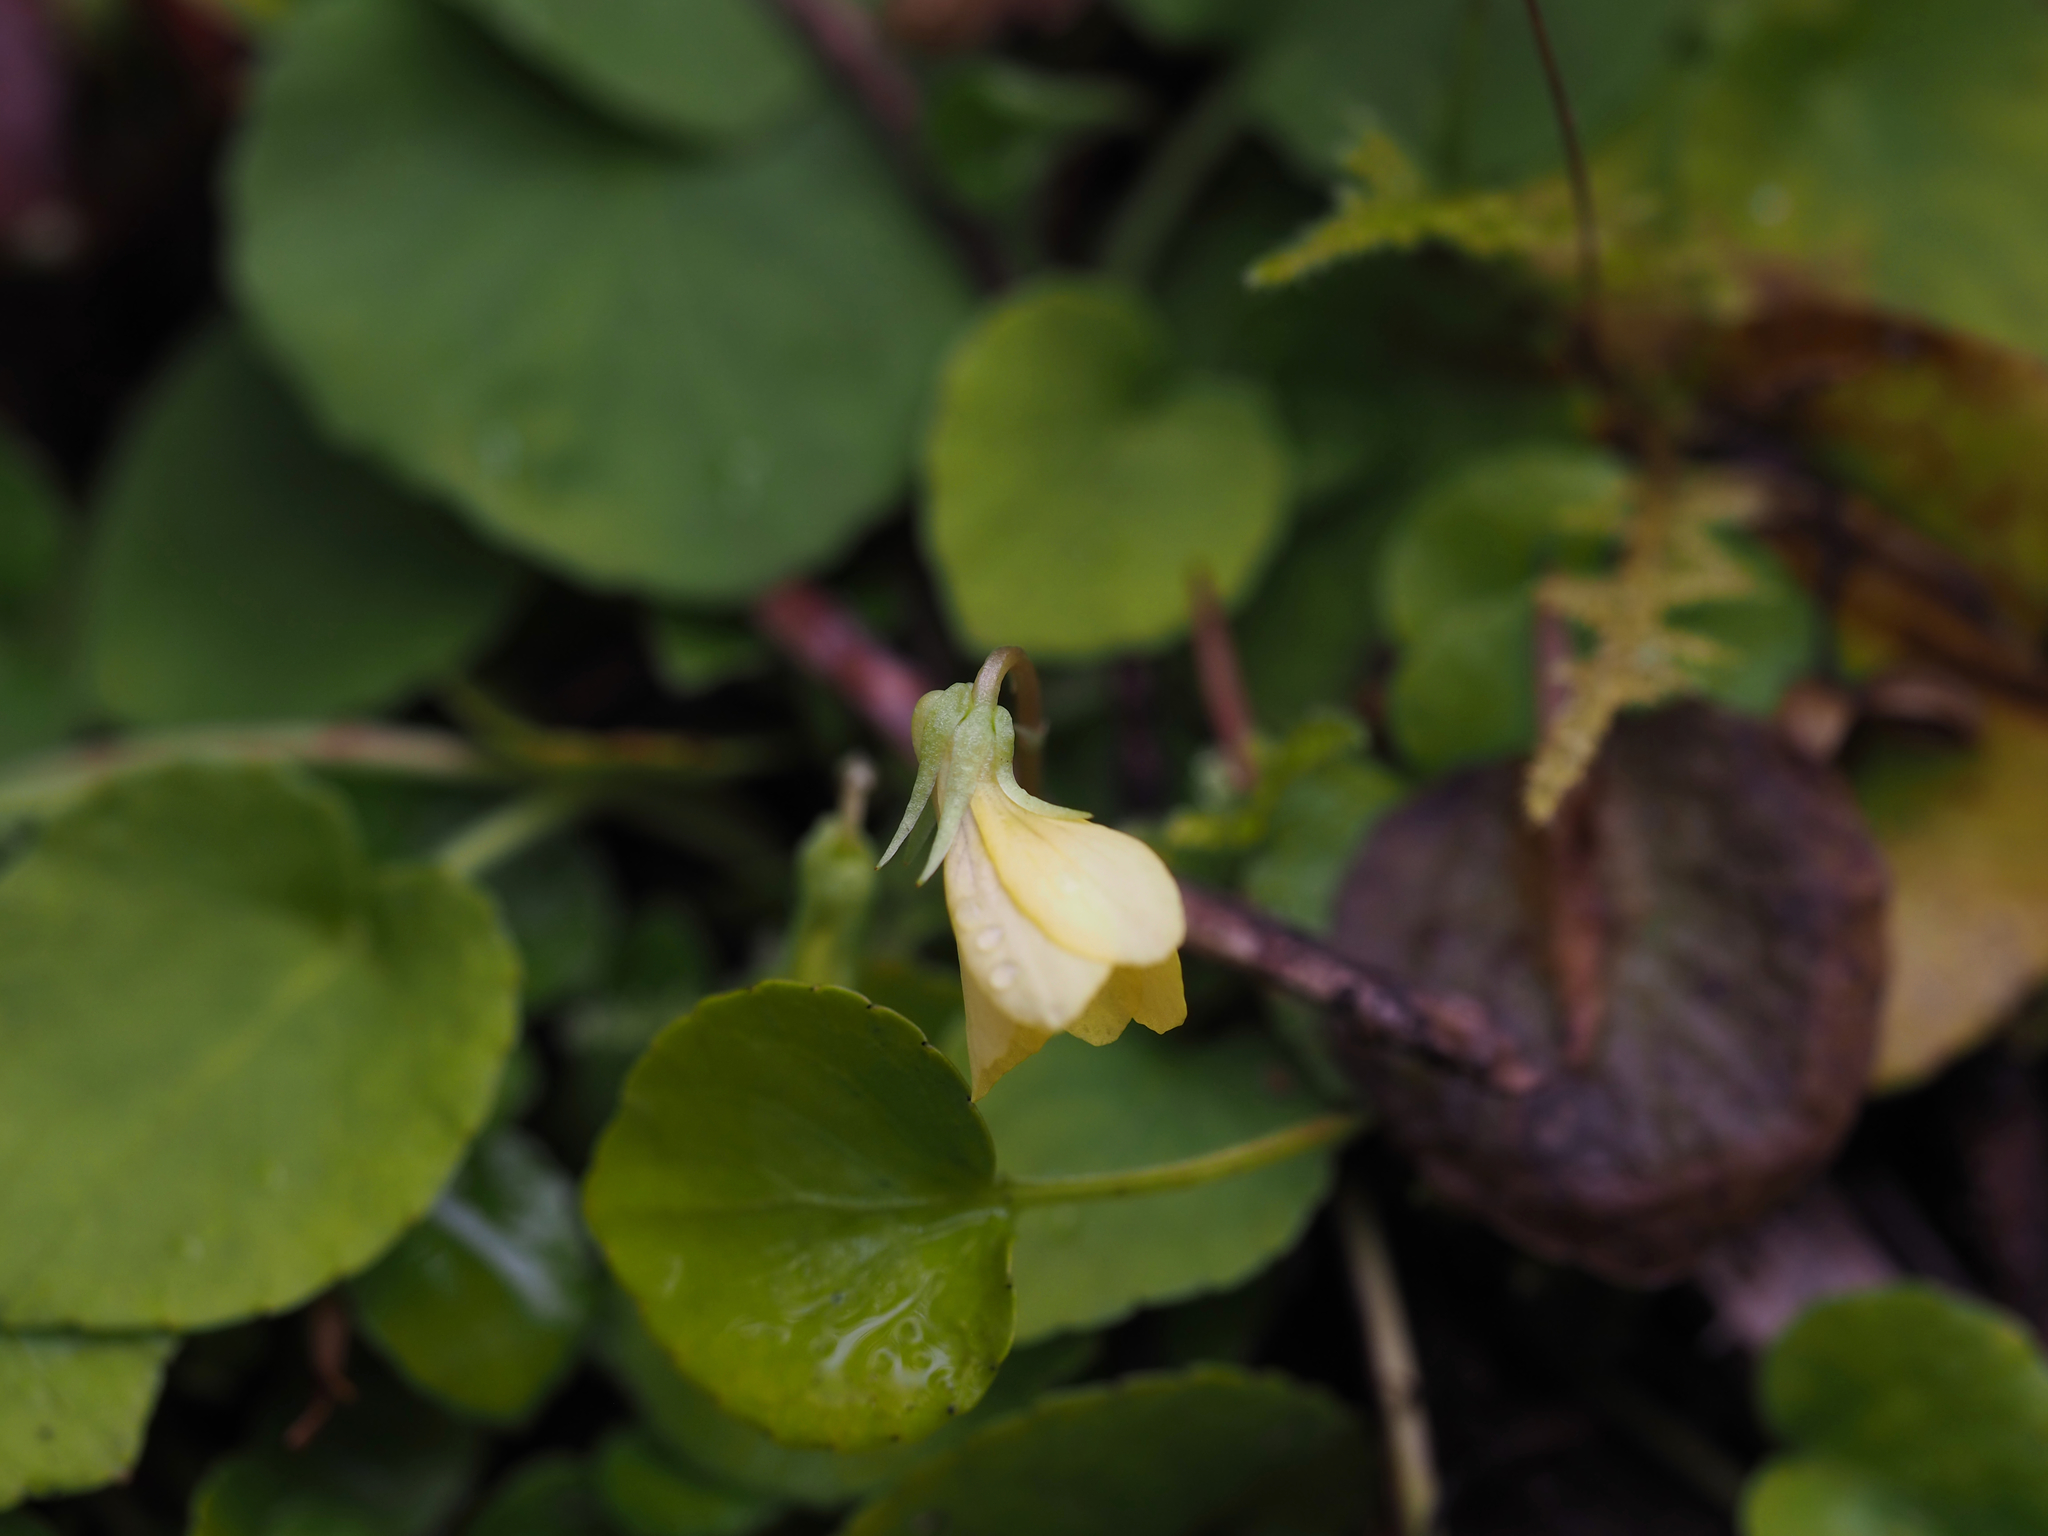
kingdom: Plantae
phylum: Tracheophyta
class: Magnoliopsida
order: Malpighiales
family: Violaceae
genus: Viola
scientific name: Viola sempervirens
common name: Evergreen violet
